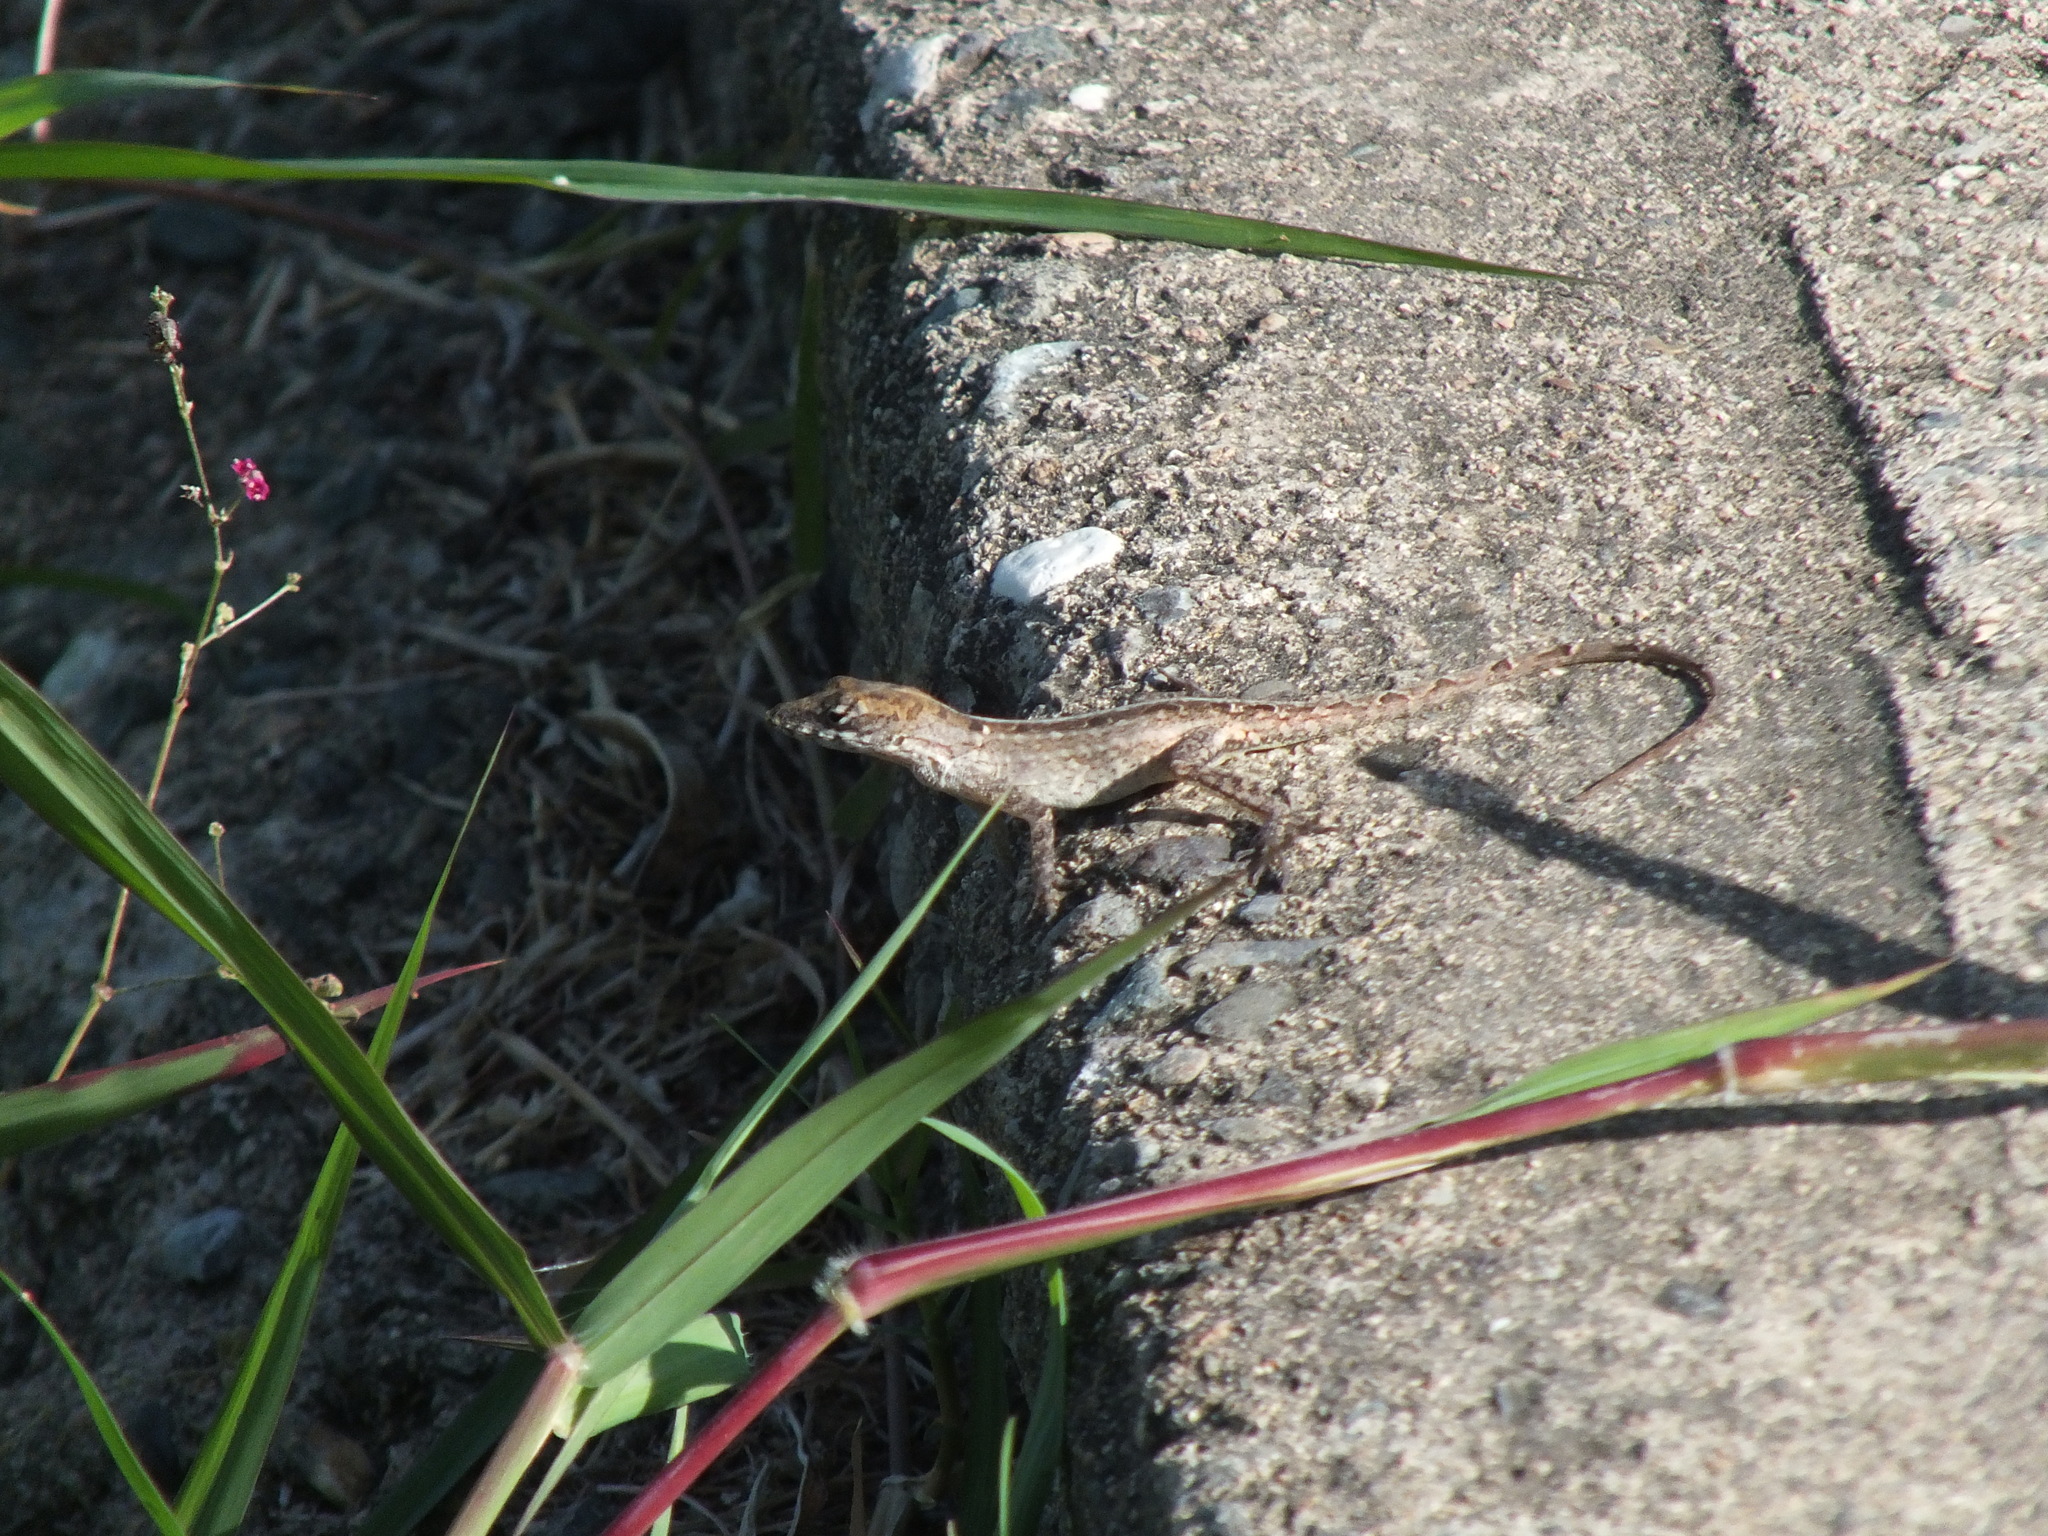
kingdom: Animalia
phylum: Chordata
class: Squamata
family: Dactyloidae
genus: Anolis
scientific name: Anolis sagrei
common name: Brown anole
